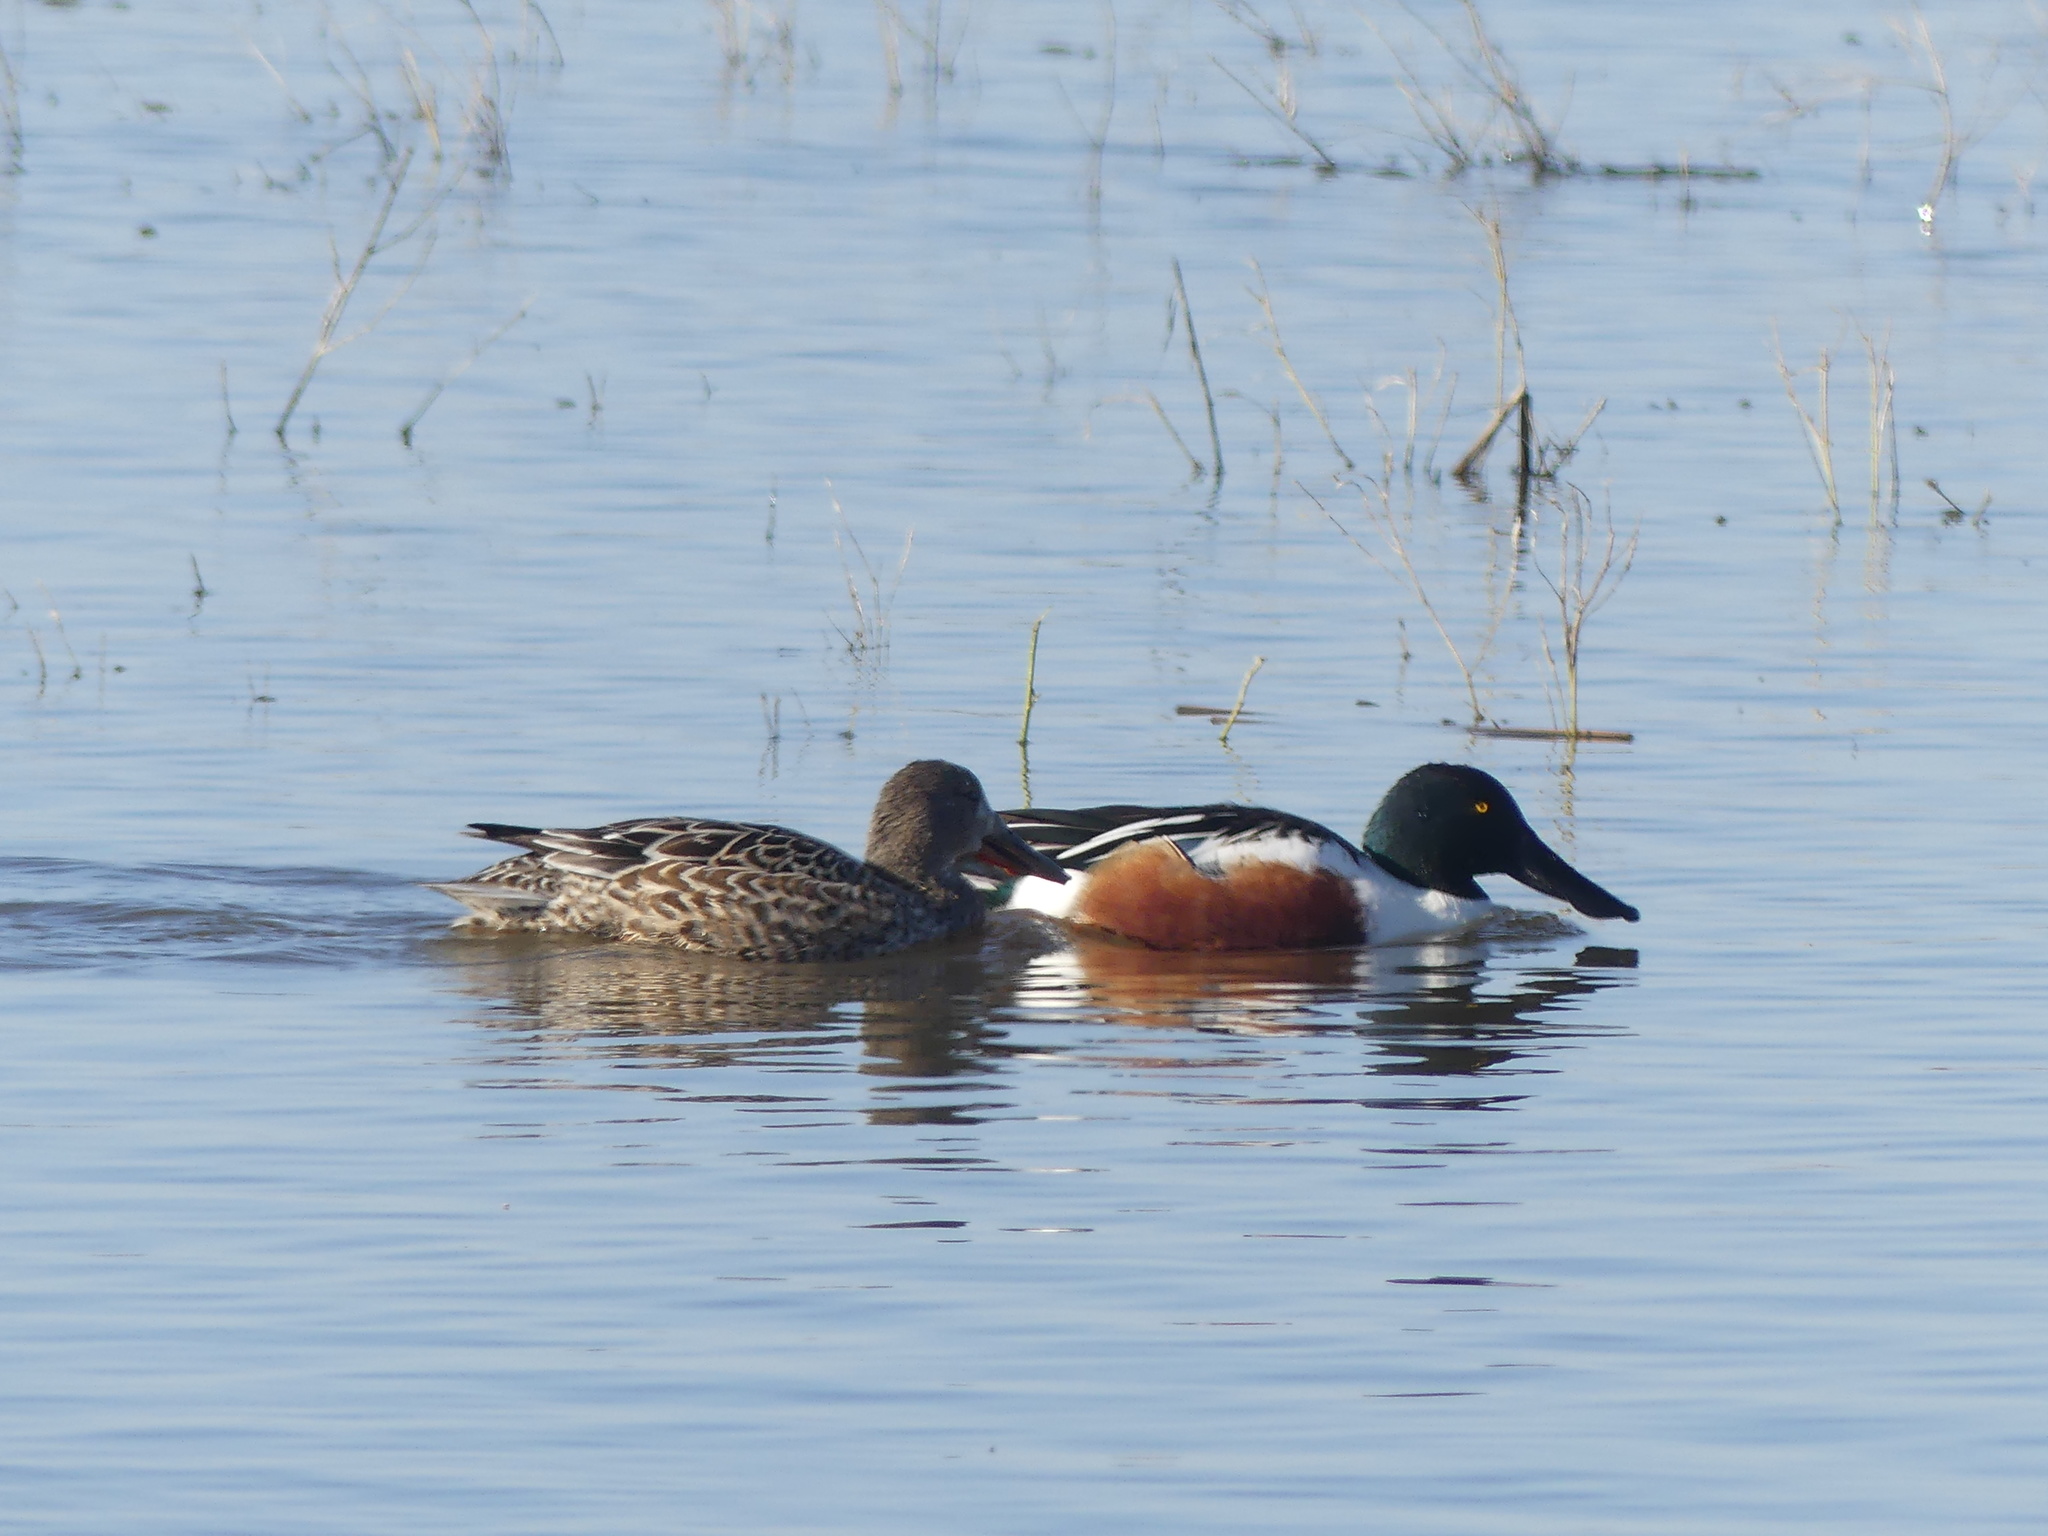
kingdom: Animalia
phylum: Chordata
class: Aves
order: Anseriformes
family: Anatidae
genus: Spatula
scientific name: Spatula clypeata
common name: Northern shoveler
